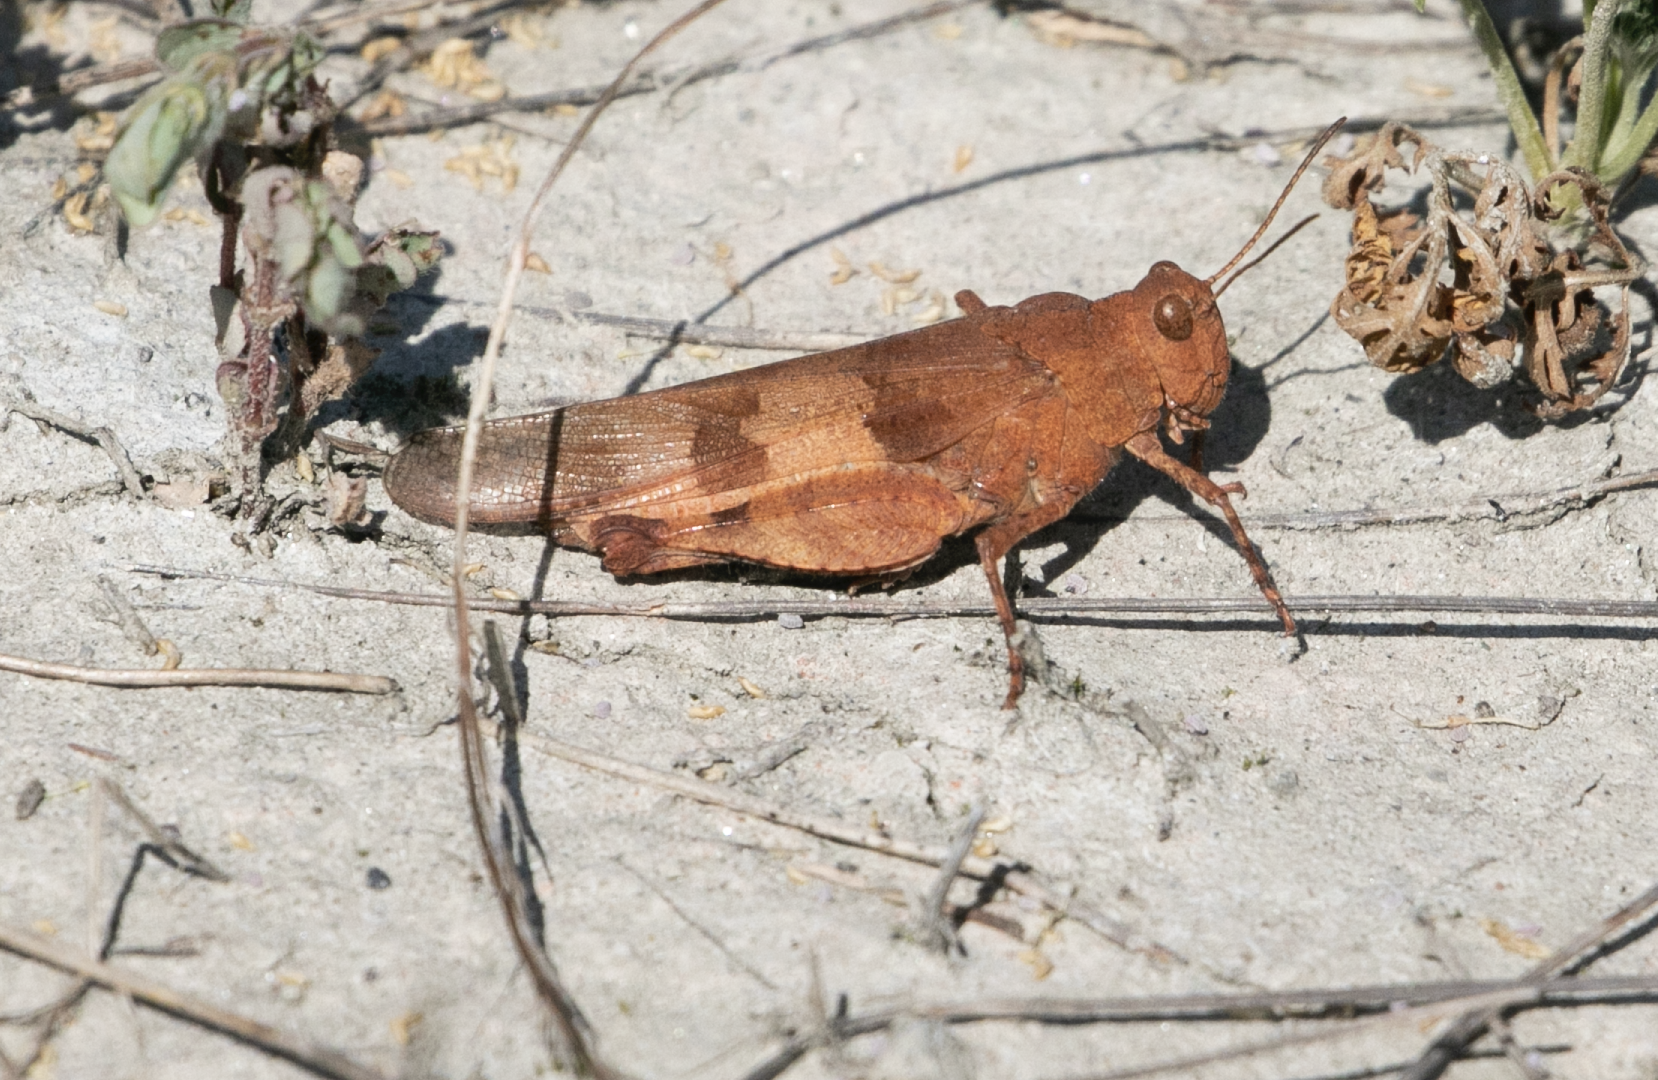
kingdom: Animalia
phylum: Arthropoda
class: Insecta
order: Orthoptera
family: Acrididae
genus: Oedipoda
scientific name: Oedipoda caerulescens
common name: Blue-winged grasshopper
